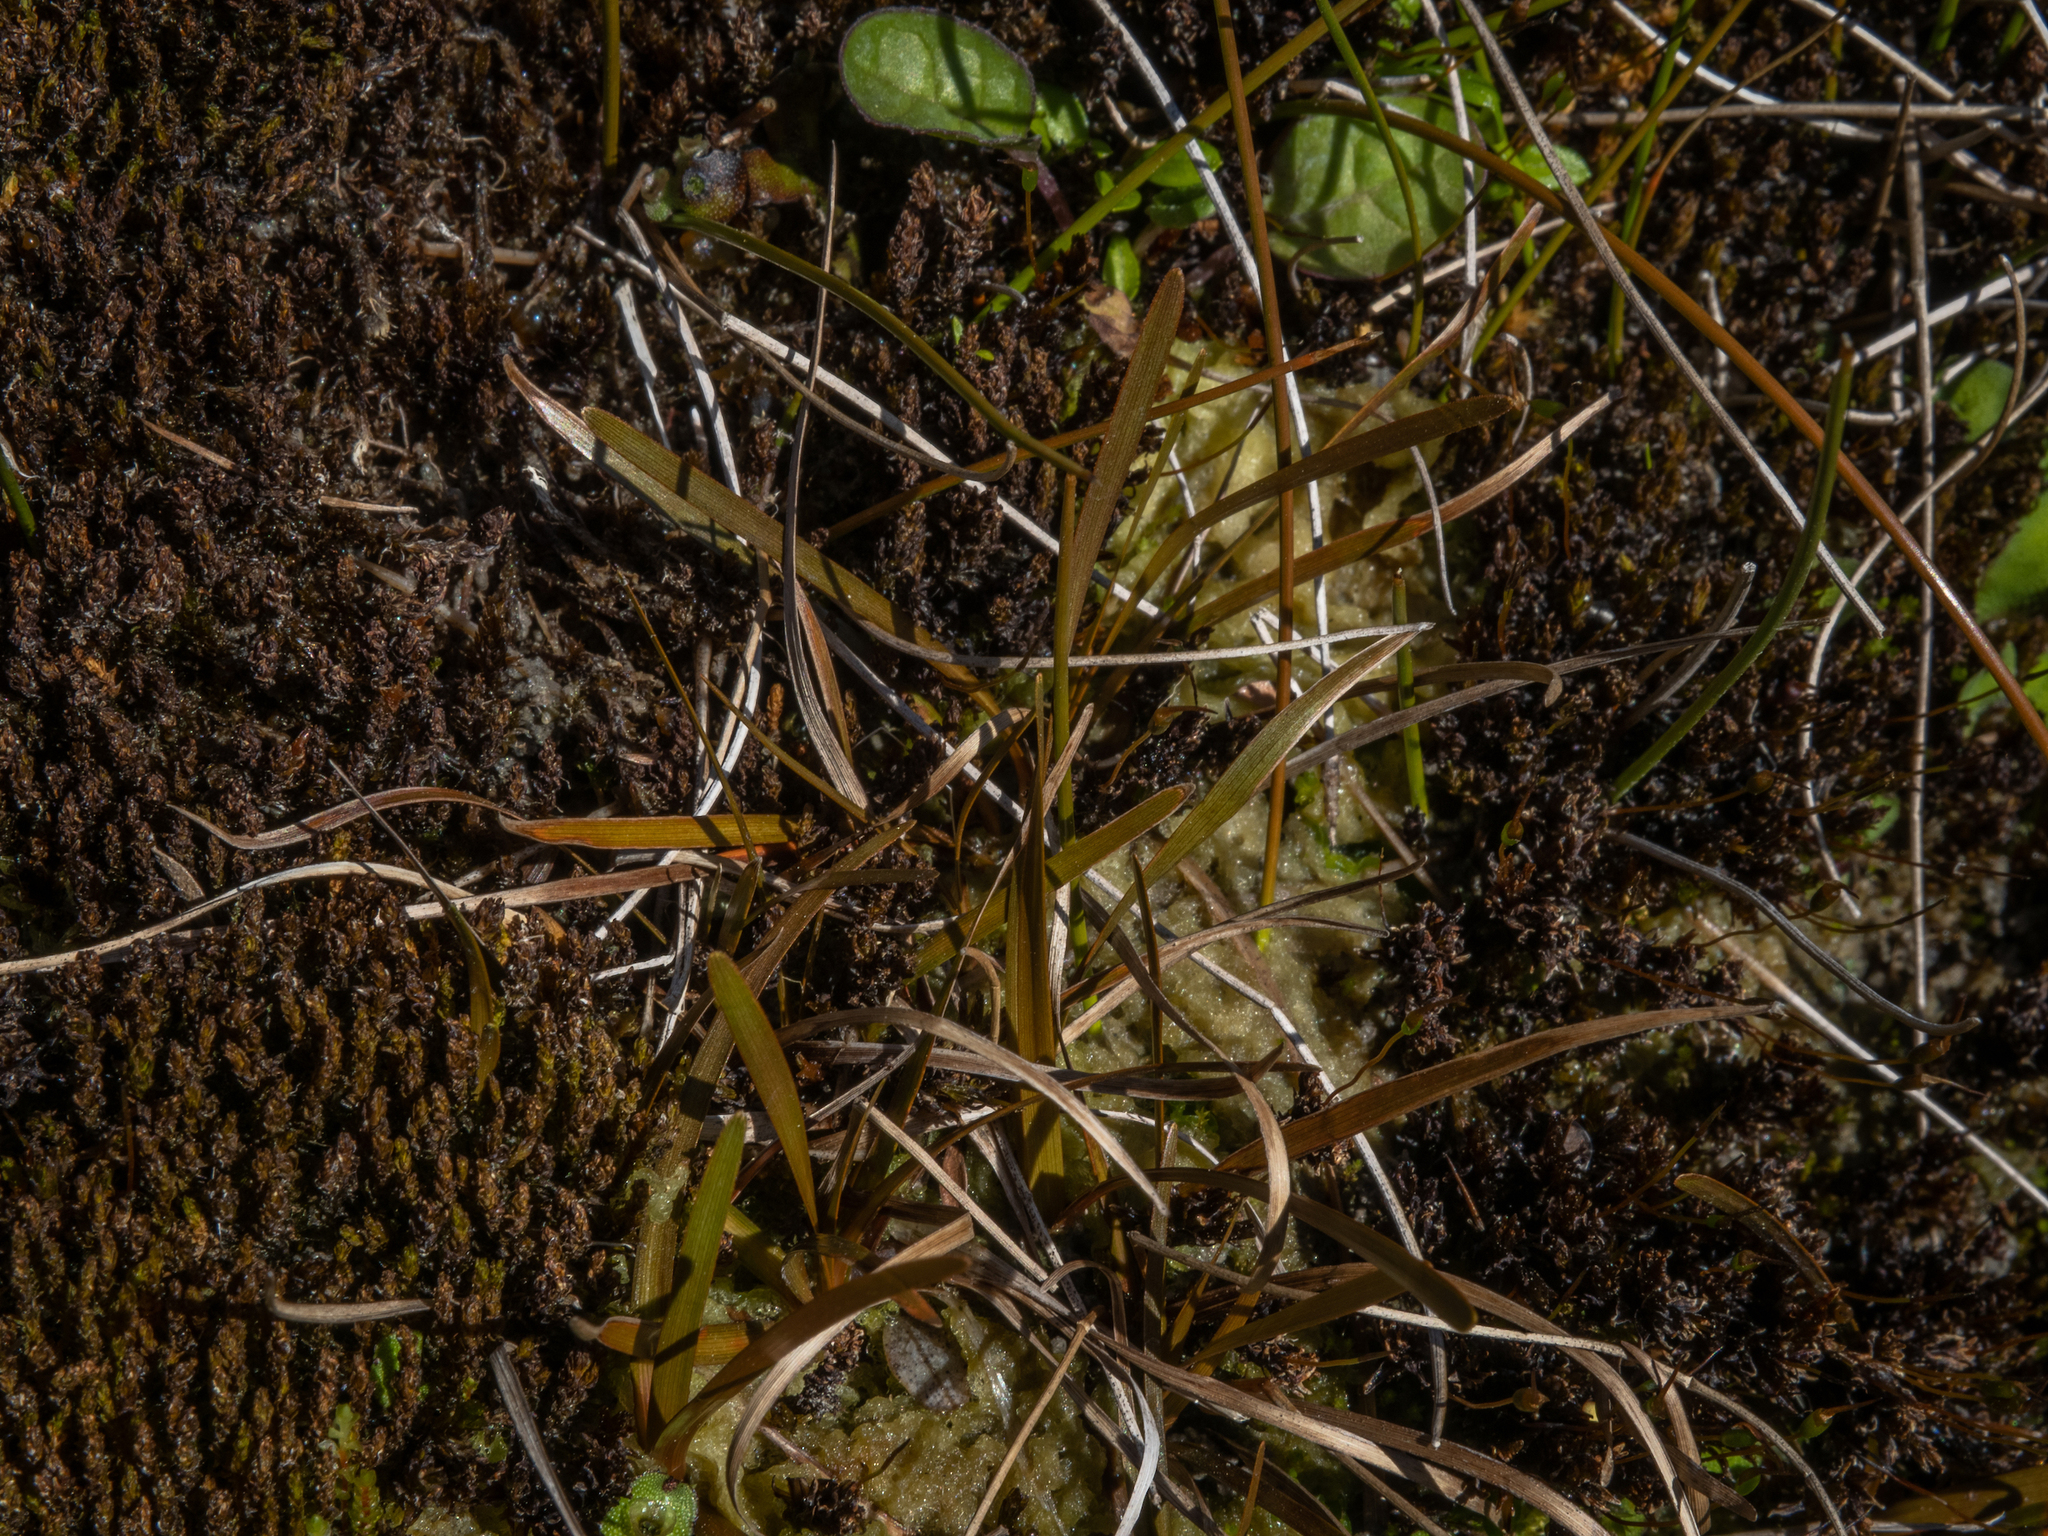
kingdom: Plantae
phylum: Tracheophyta
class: Liliopsida
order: Poales
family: Cyperaceae
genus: Carex
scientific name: Carex talbotii
